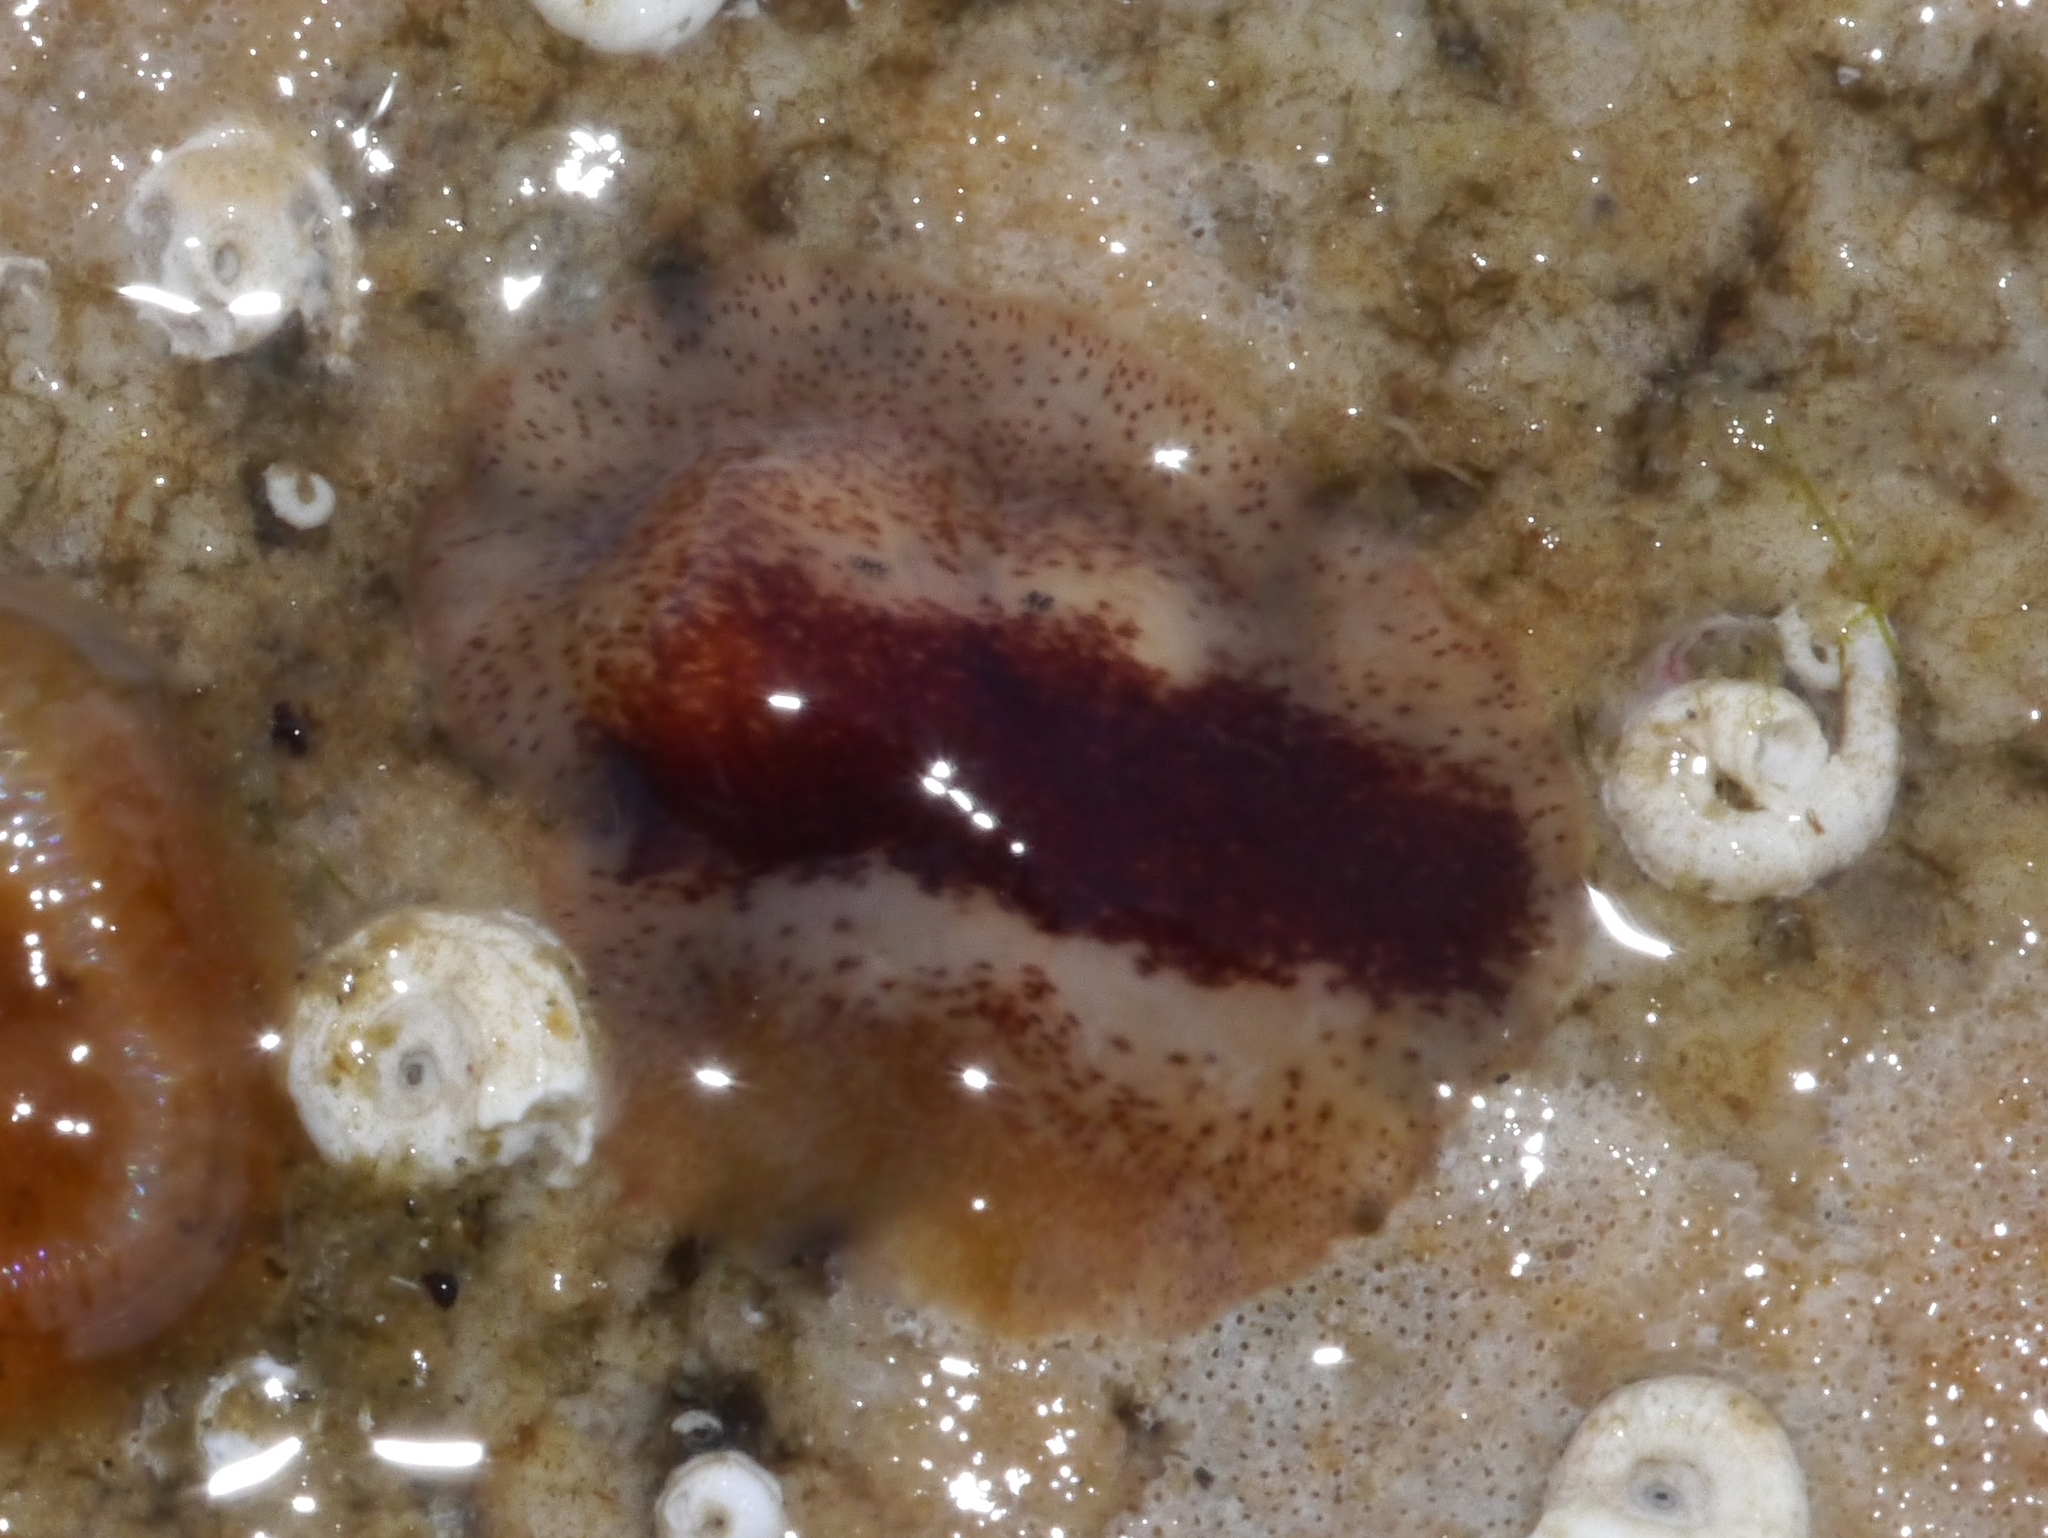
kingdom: Animalia
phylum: Platyhelminthes
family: Notocomplanidae
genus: Notocomplana
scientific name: Notocomplana sanguinea
